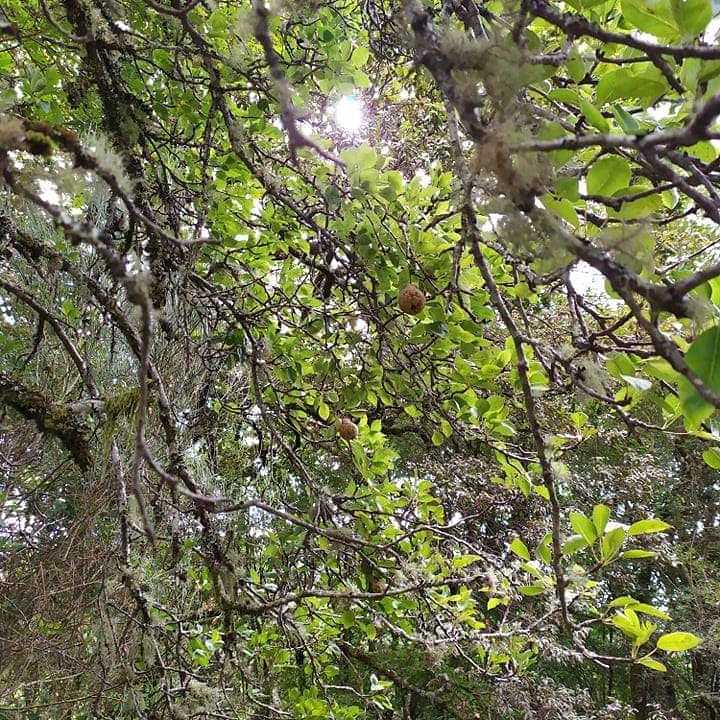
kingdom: Plantae
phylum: Tracheophyta
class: Magnoliopsida
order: Rosales
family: Rosaceae
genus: Pyrus
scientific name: Pyrus cordata
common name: Plymouth pear
